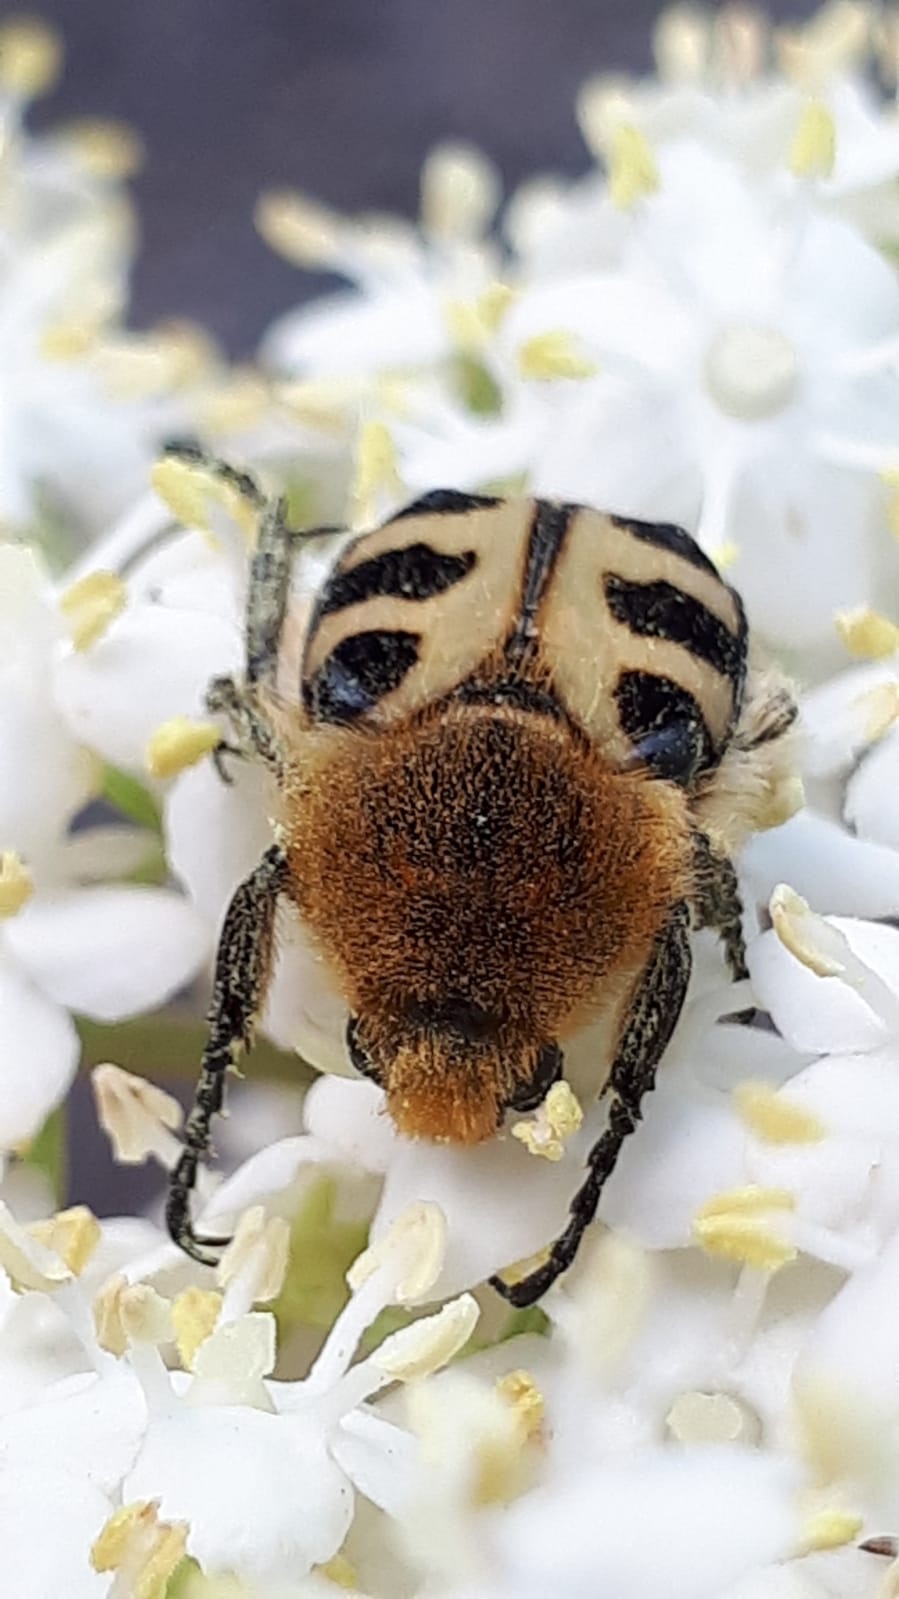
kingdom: Animalia
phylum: Arthropoda
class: Insecta
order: Coleoptera
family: Scarabaeidae
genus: Trichius
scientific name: Trichius gallicus
